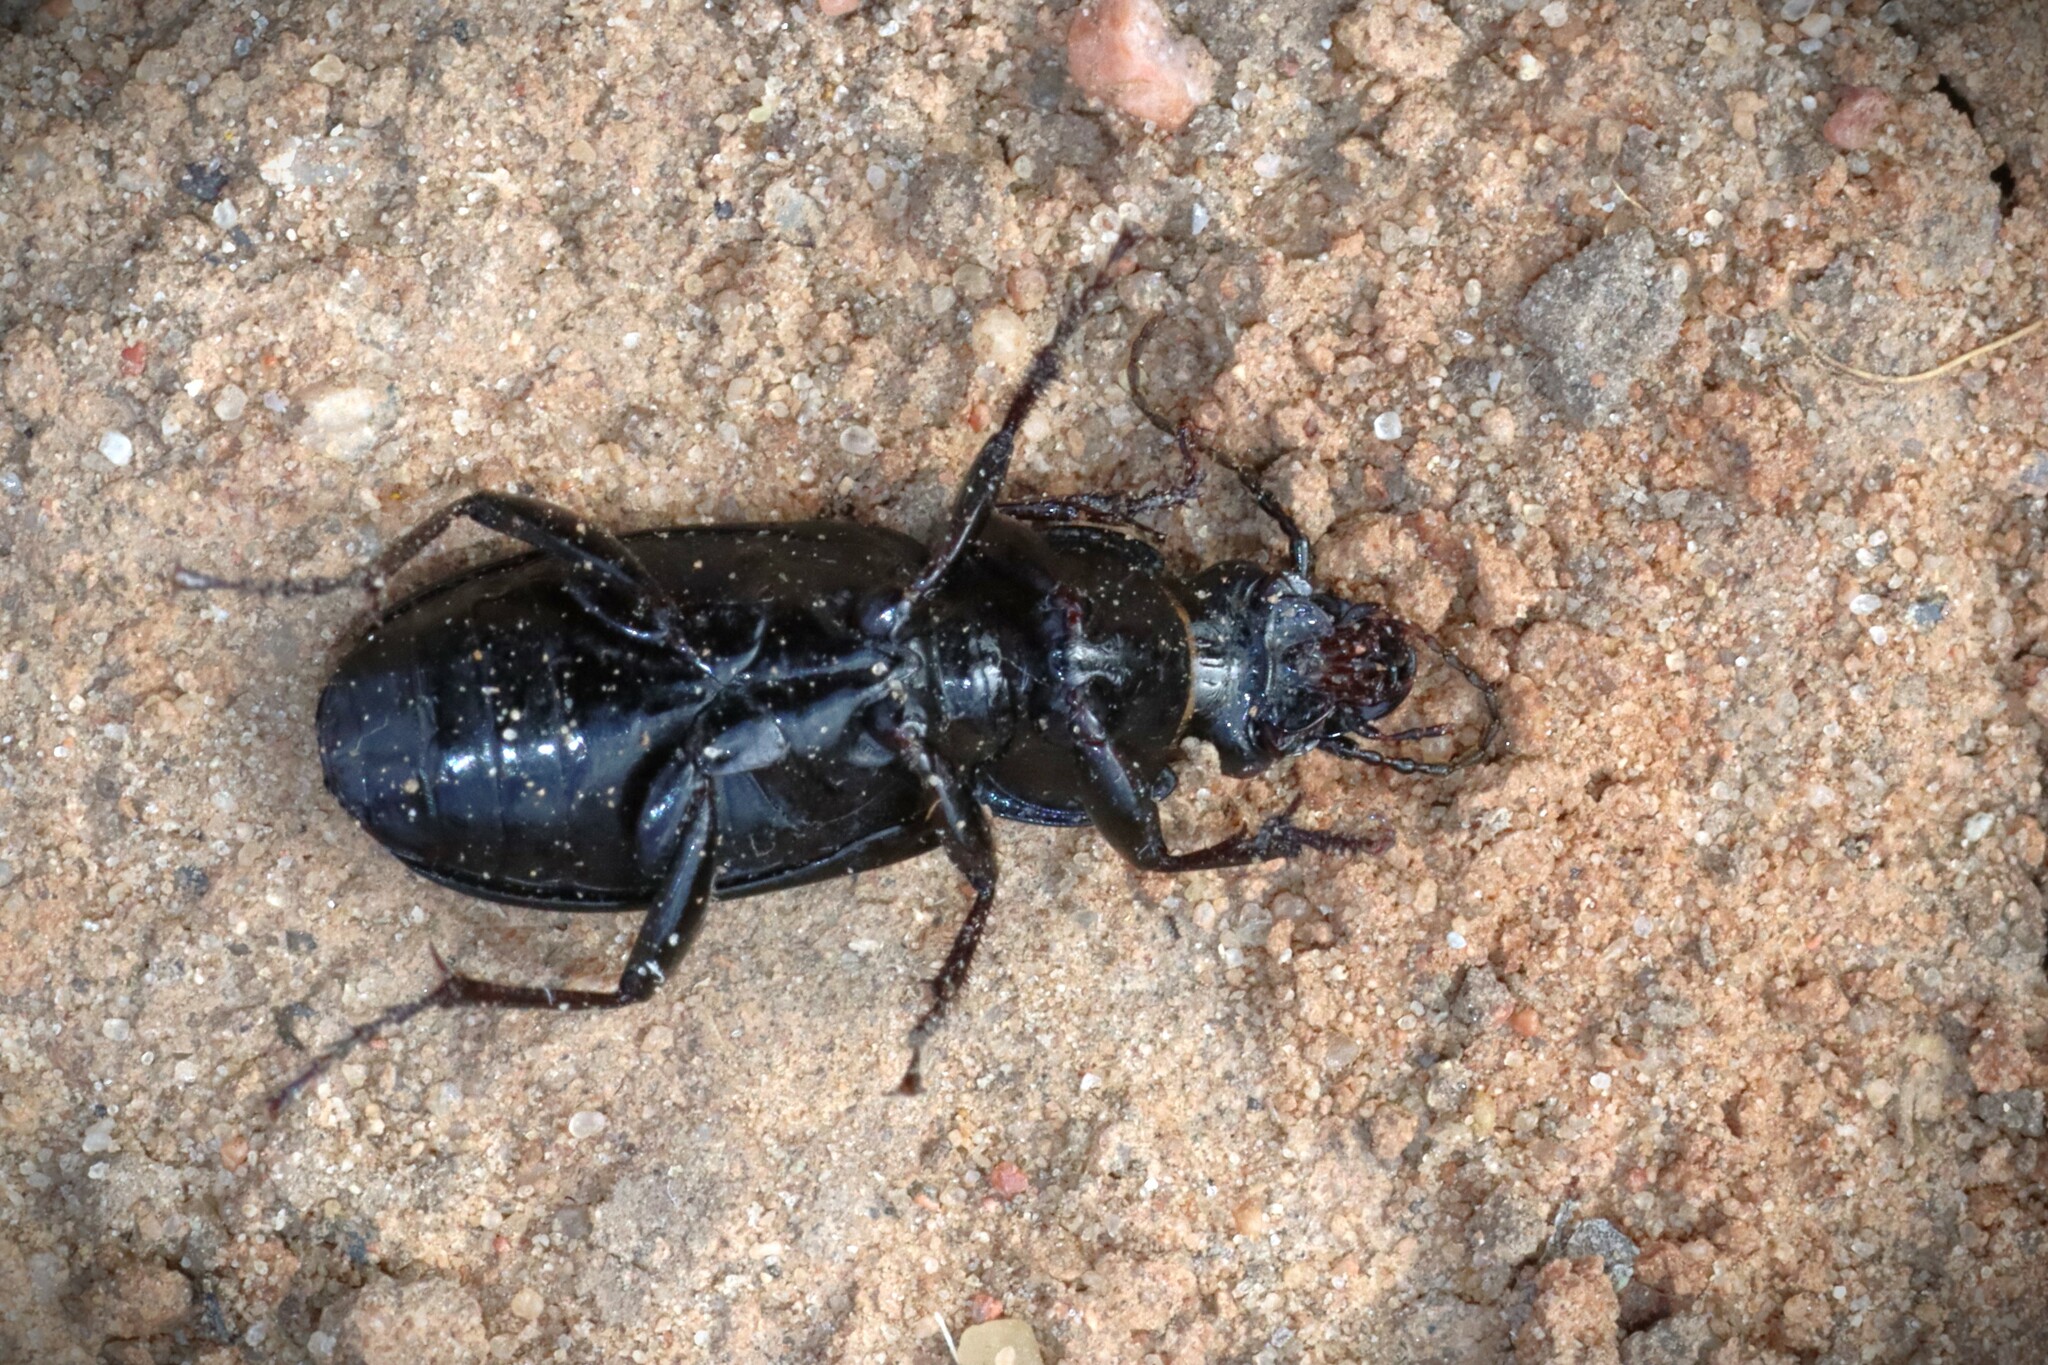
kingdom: Animalia
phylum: Arthropoda
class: Insecta
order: Coleoptera
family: Carabidae
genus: Pterostichus
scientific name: Pterostichus melanarius
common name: European dark harp ground beetle
